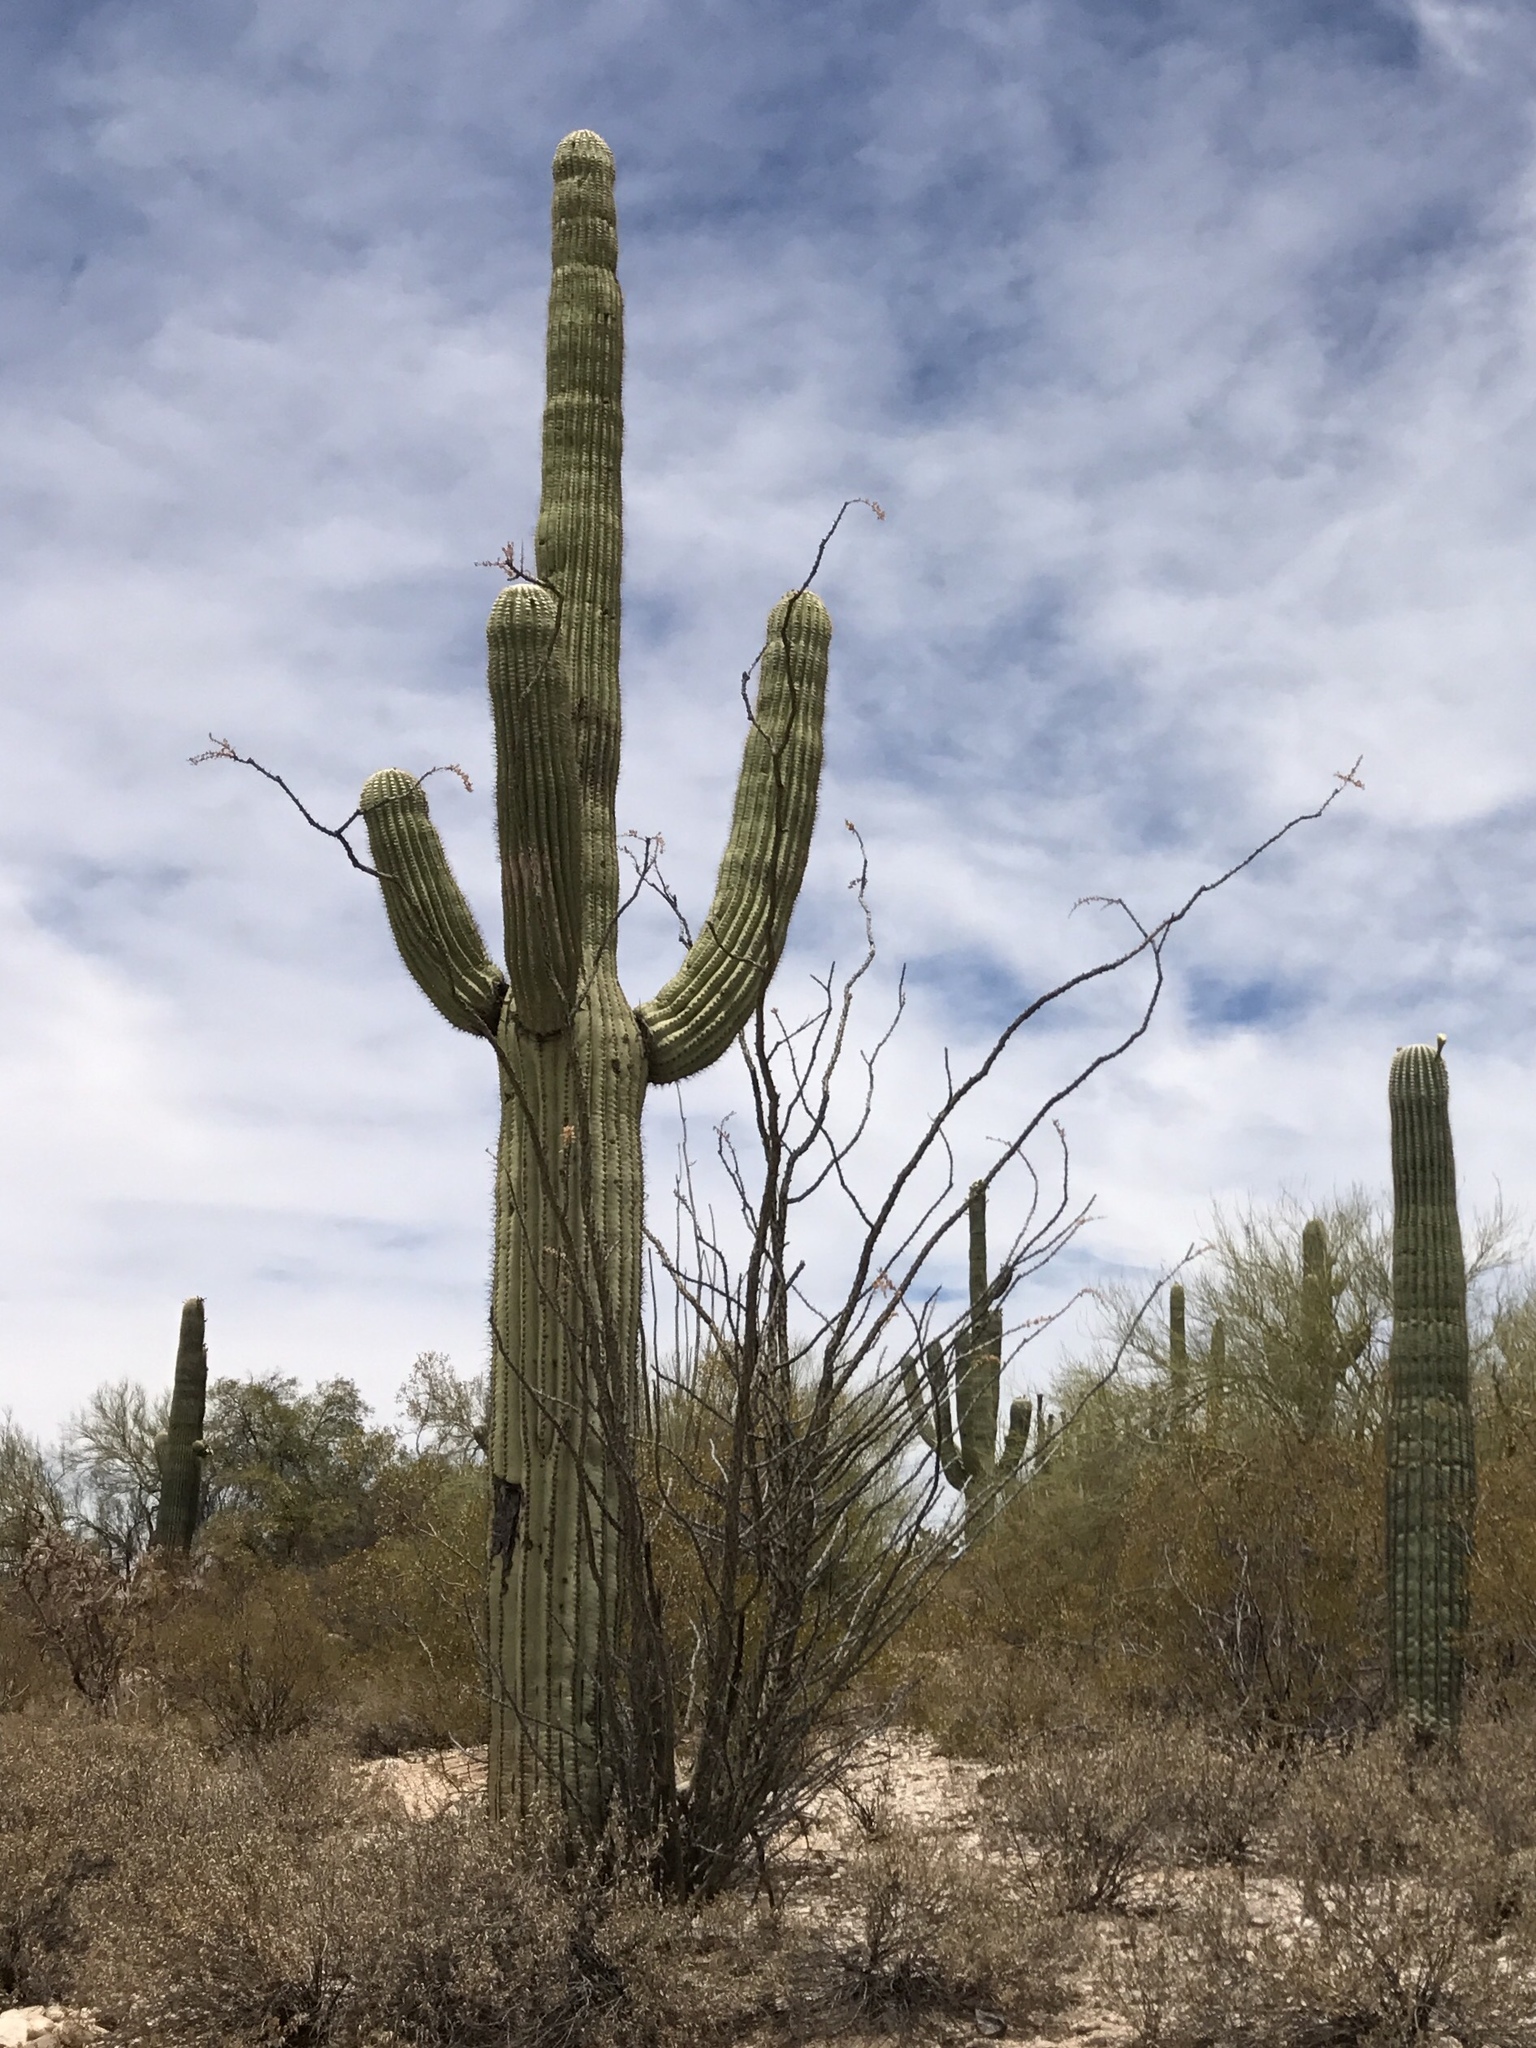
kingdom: Plantae
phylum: Tracheophyta
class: Magnoliopsida
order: Caryophyllales
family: Cactaceae
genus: Carnegiea
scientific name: Carnegiea gigantea
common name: Saguaro
